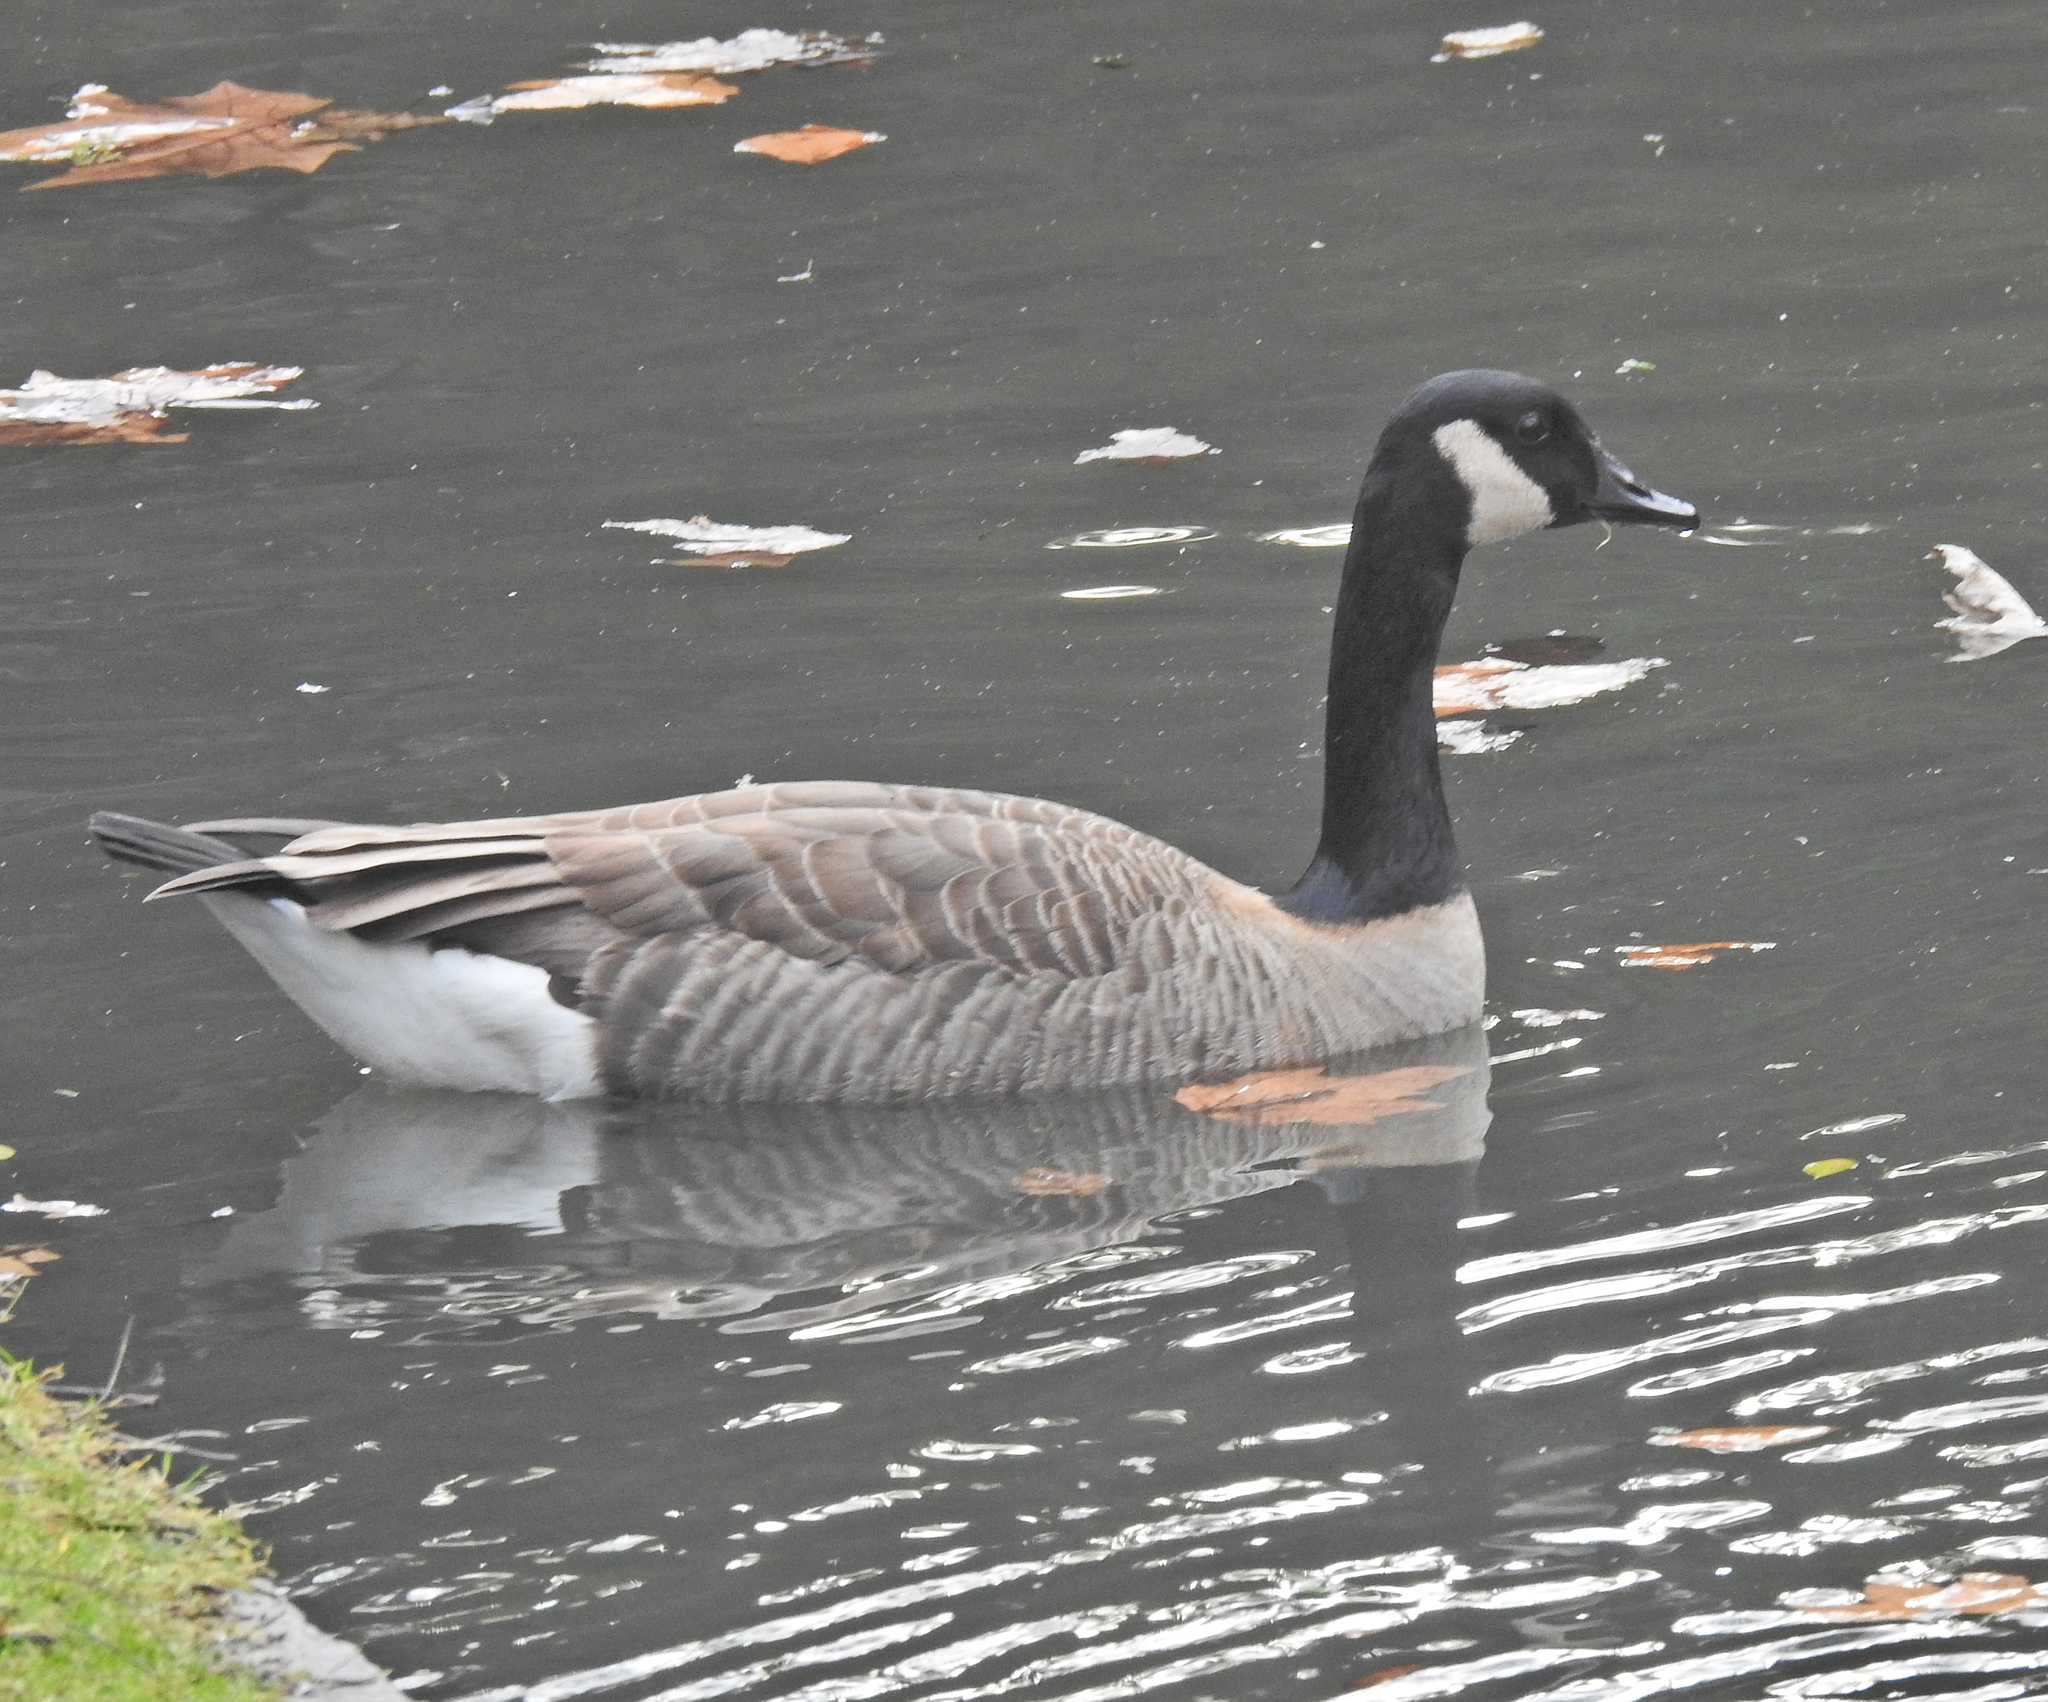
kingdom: Animalia
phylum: Chordata
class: Aves
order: Anseriformes
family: Anatidae
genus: Branta
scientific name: Branta canadensis
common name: Canada goose
